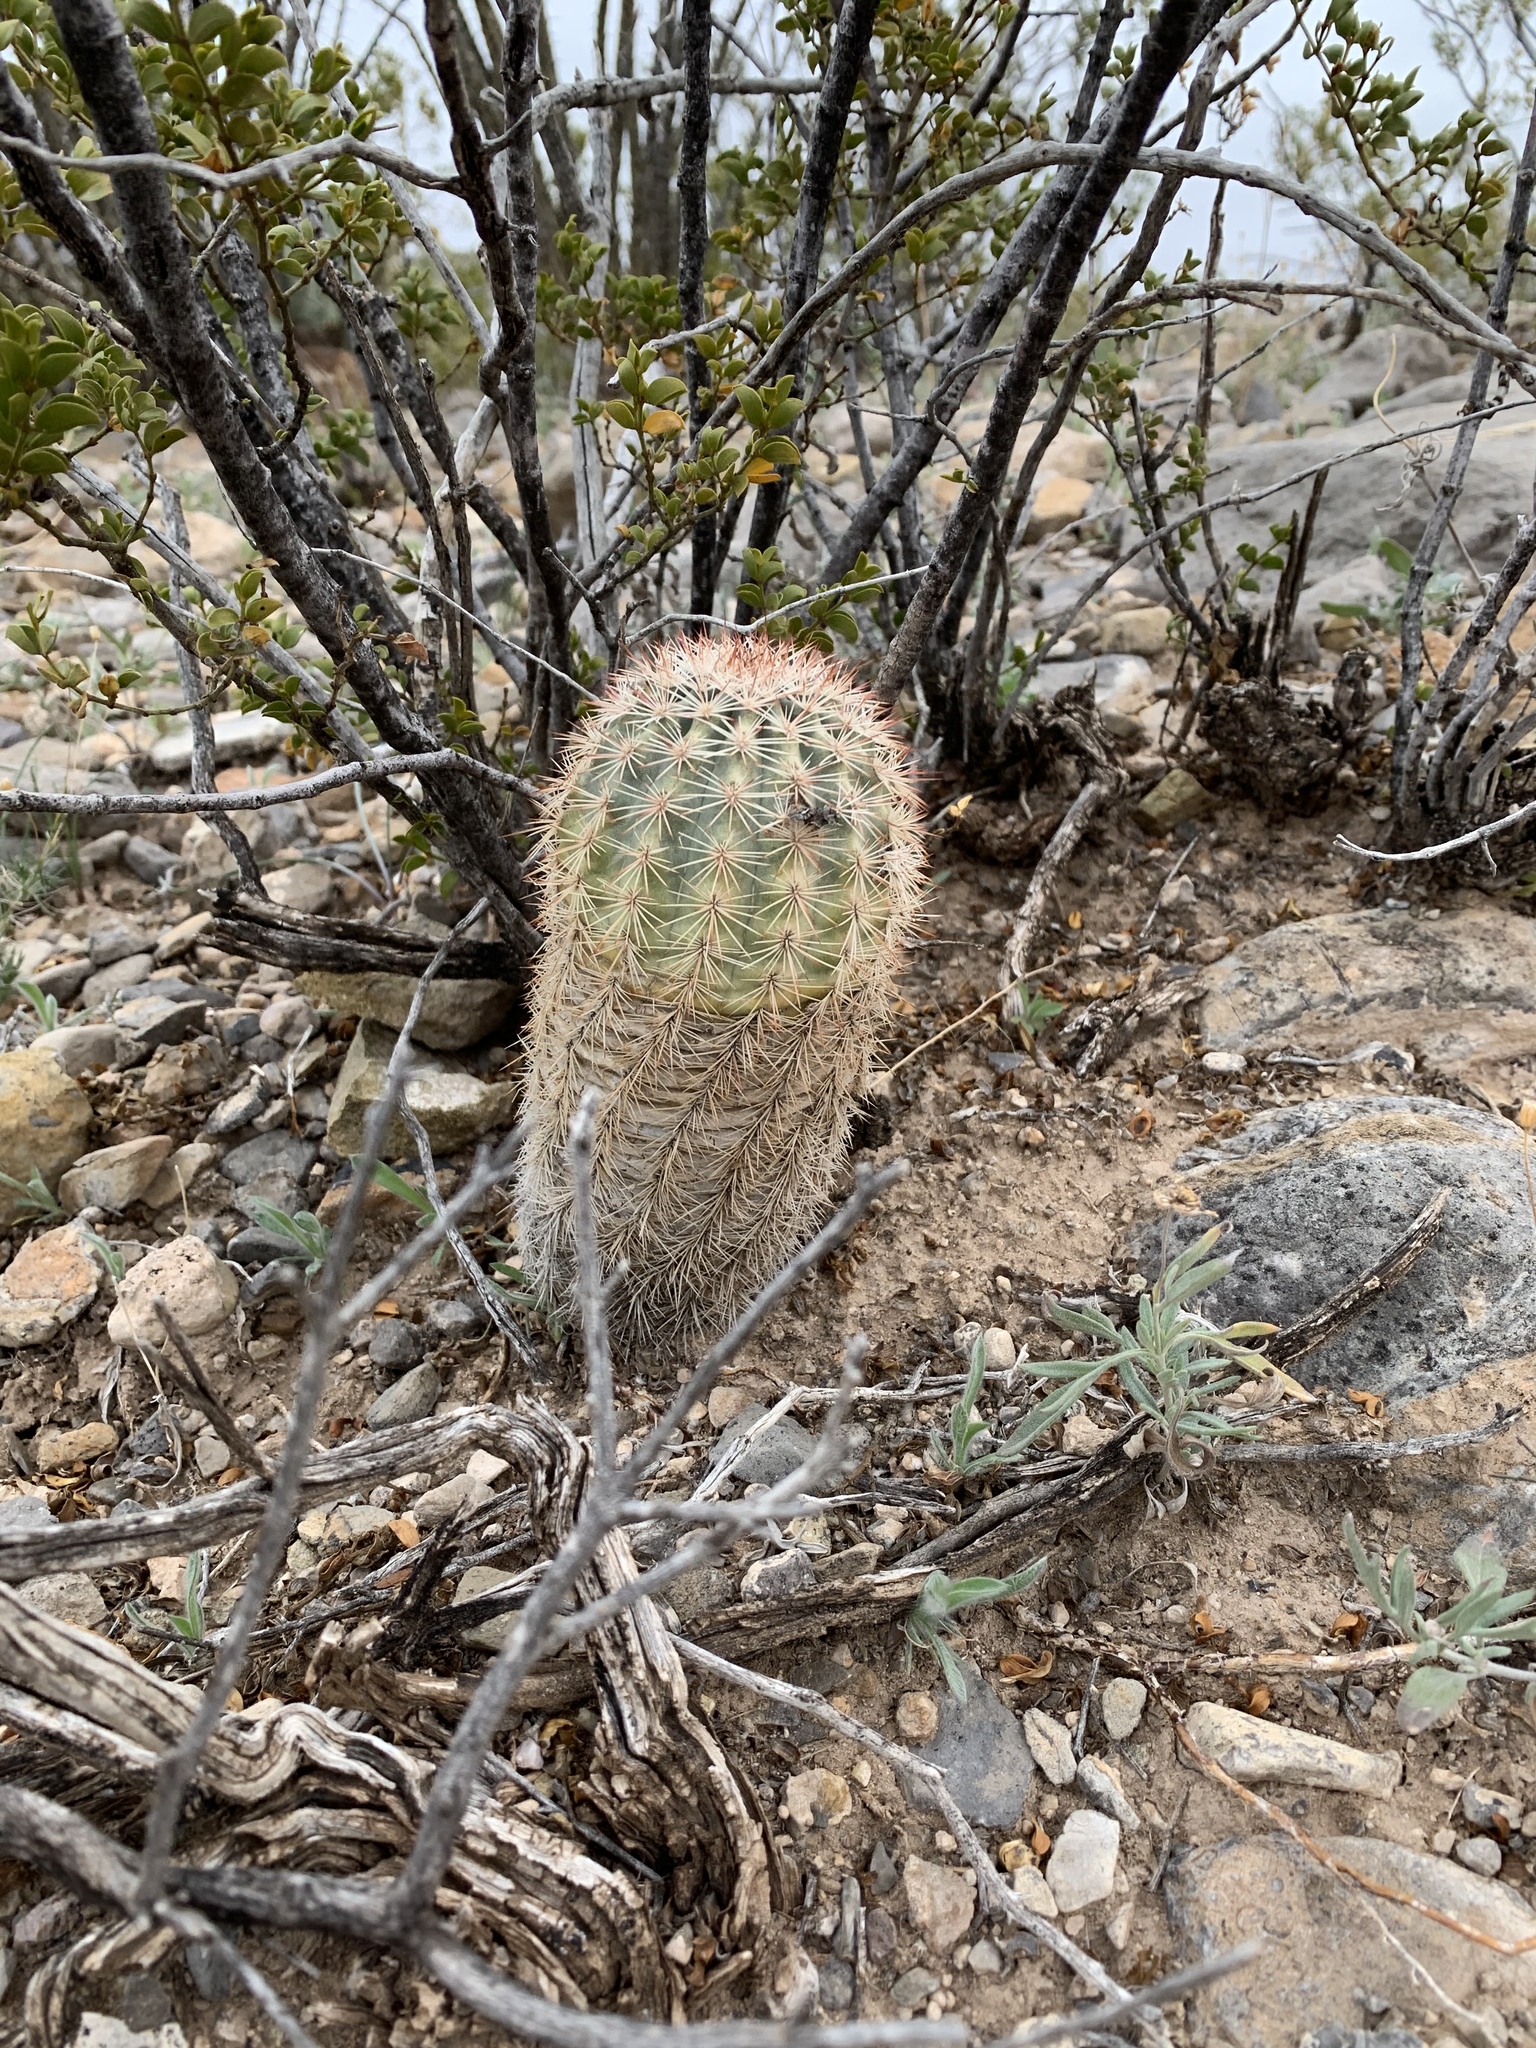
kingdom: Plantae
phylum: Tracheophyta
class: Magnoliopsida
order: Caryophyllales
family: Cactaceae
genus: Echinocereus
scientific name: Echinocereus dasyacanthus
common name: Spiny hedgehog cactus
